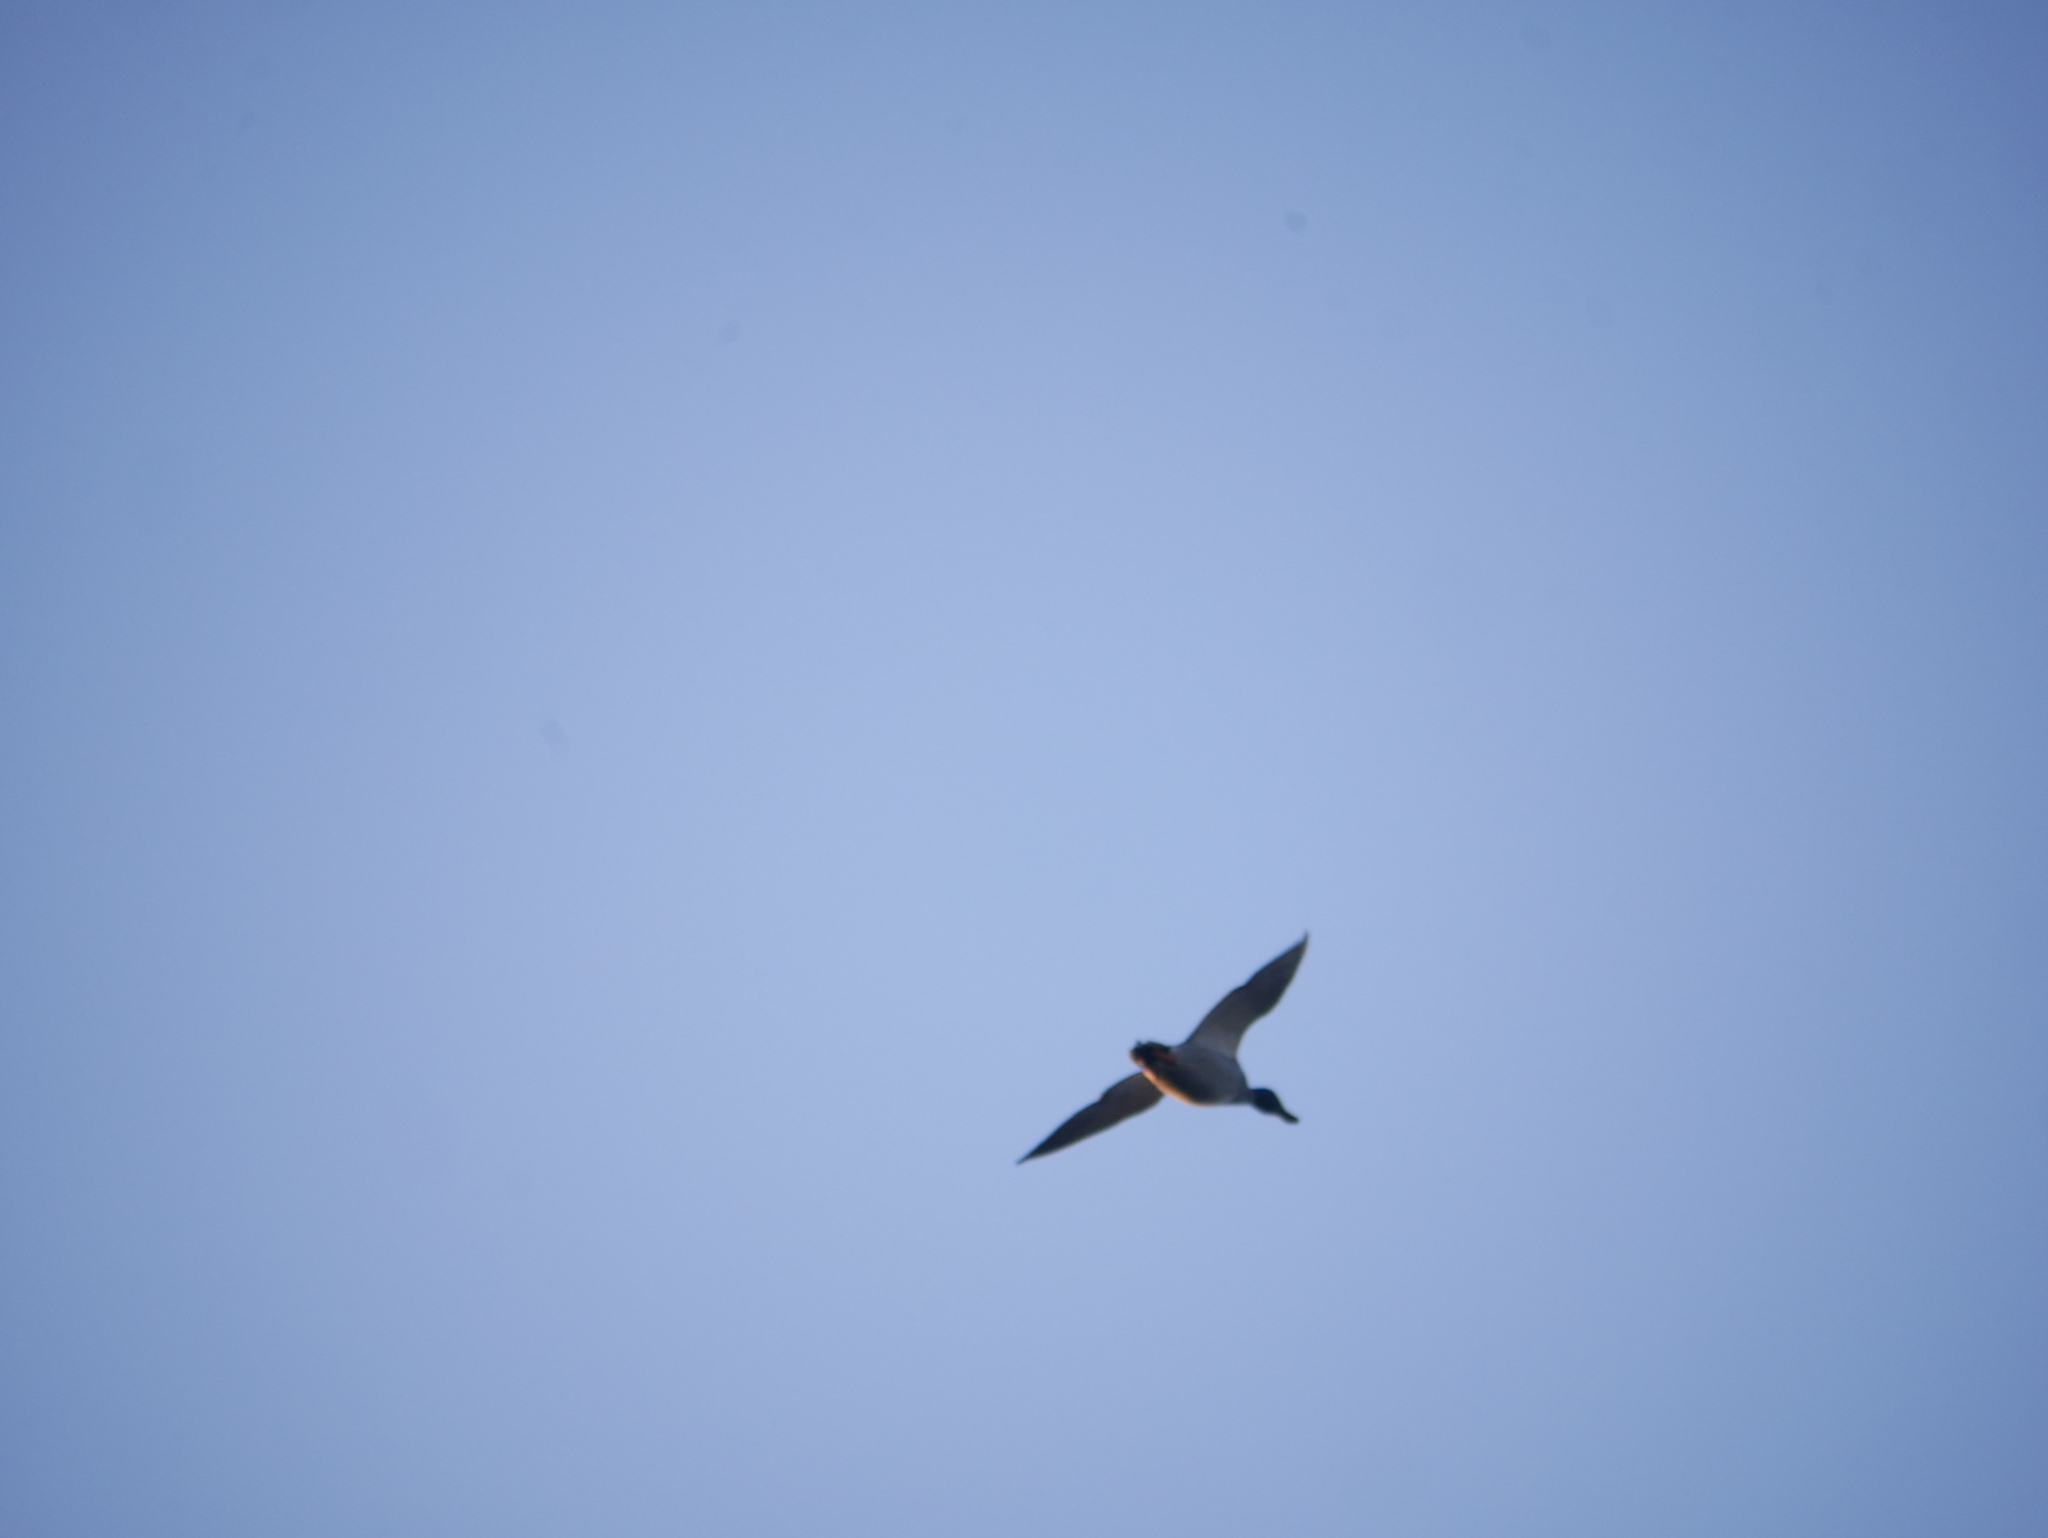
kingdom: Animalia
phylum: Chordata
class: Aves
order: Anseriformes
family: Anatidae
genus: Anas
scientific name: Anas platyrhynchos
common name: Mallard
